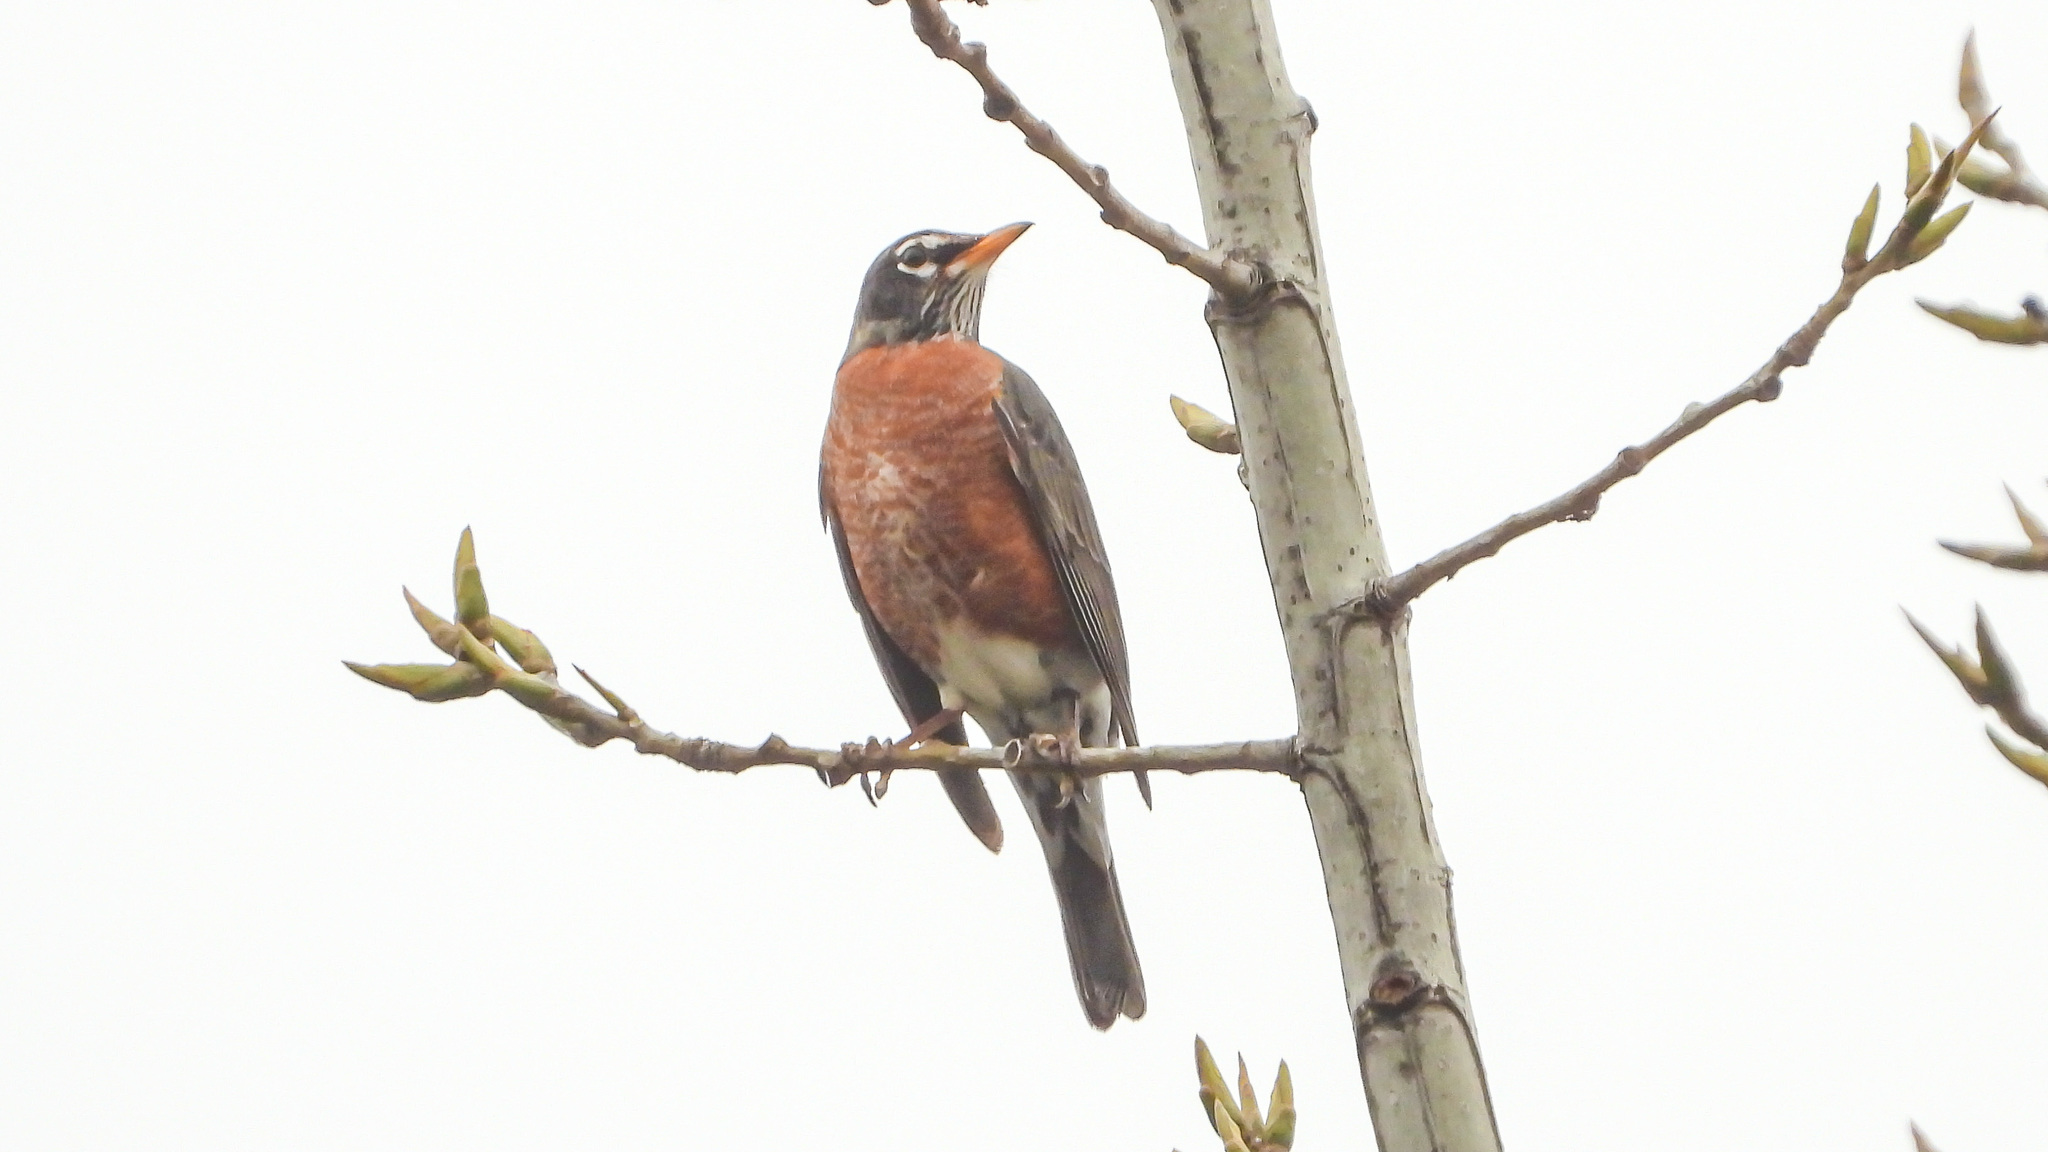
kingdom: Animalia
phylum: Chordata
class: Aves
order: Passeriformes
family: Turdidae
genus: Turdus
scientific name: Turdus migratorius
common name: American robin
